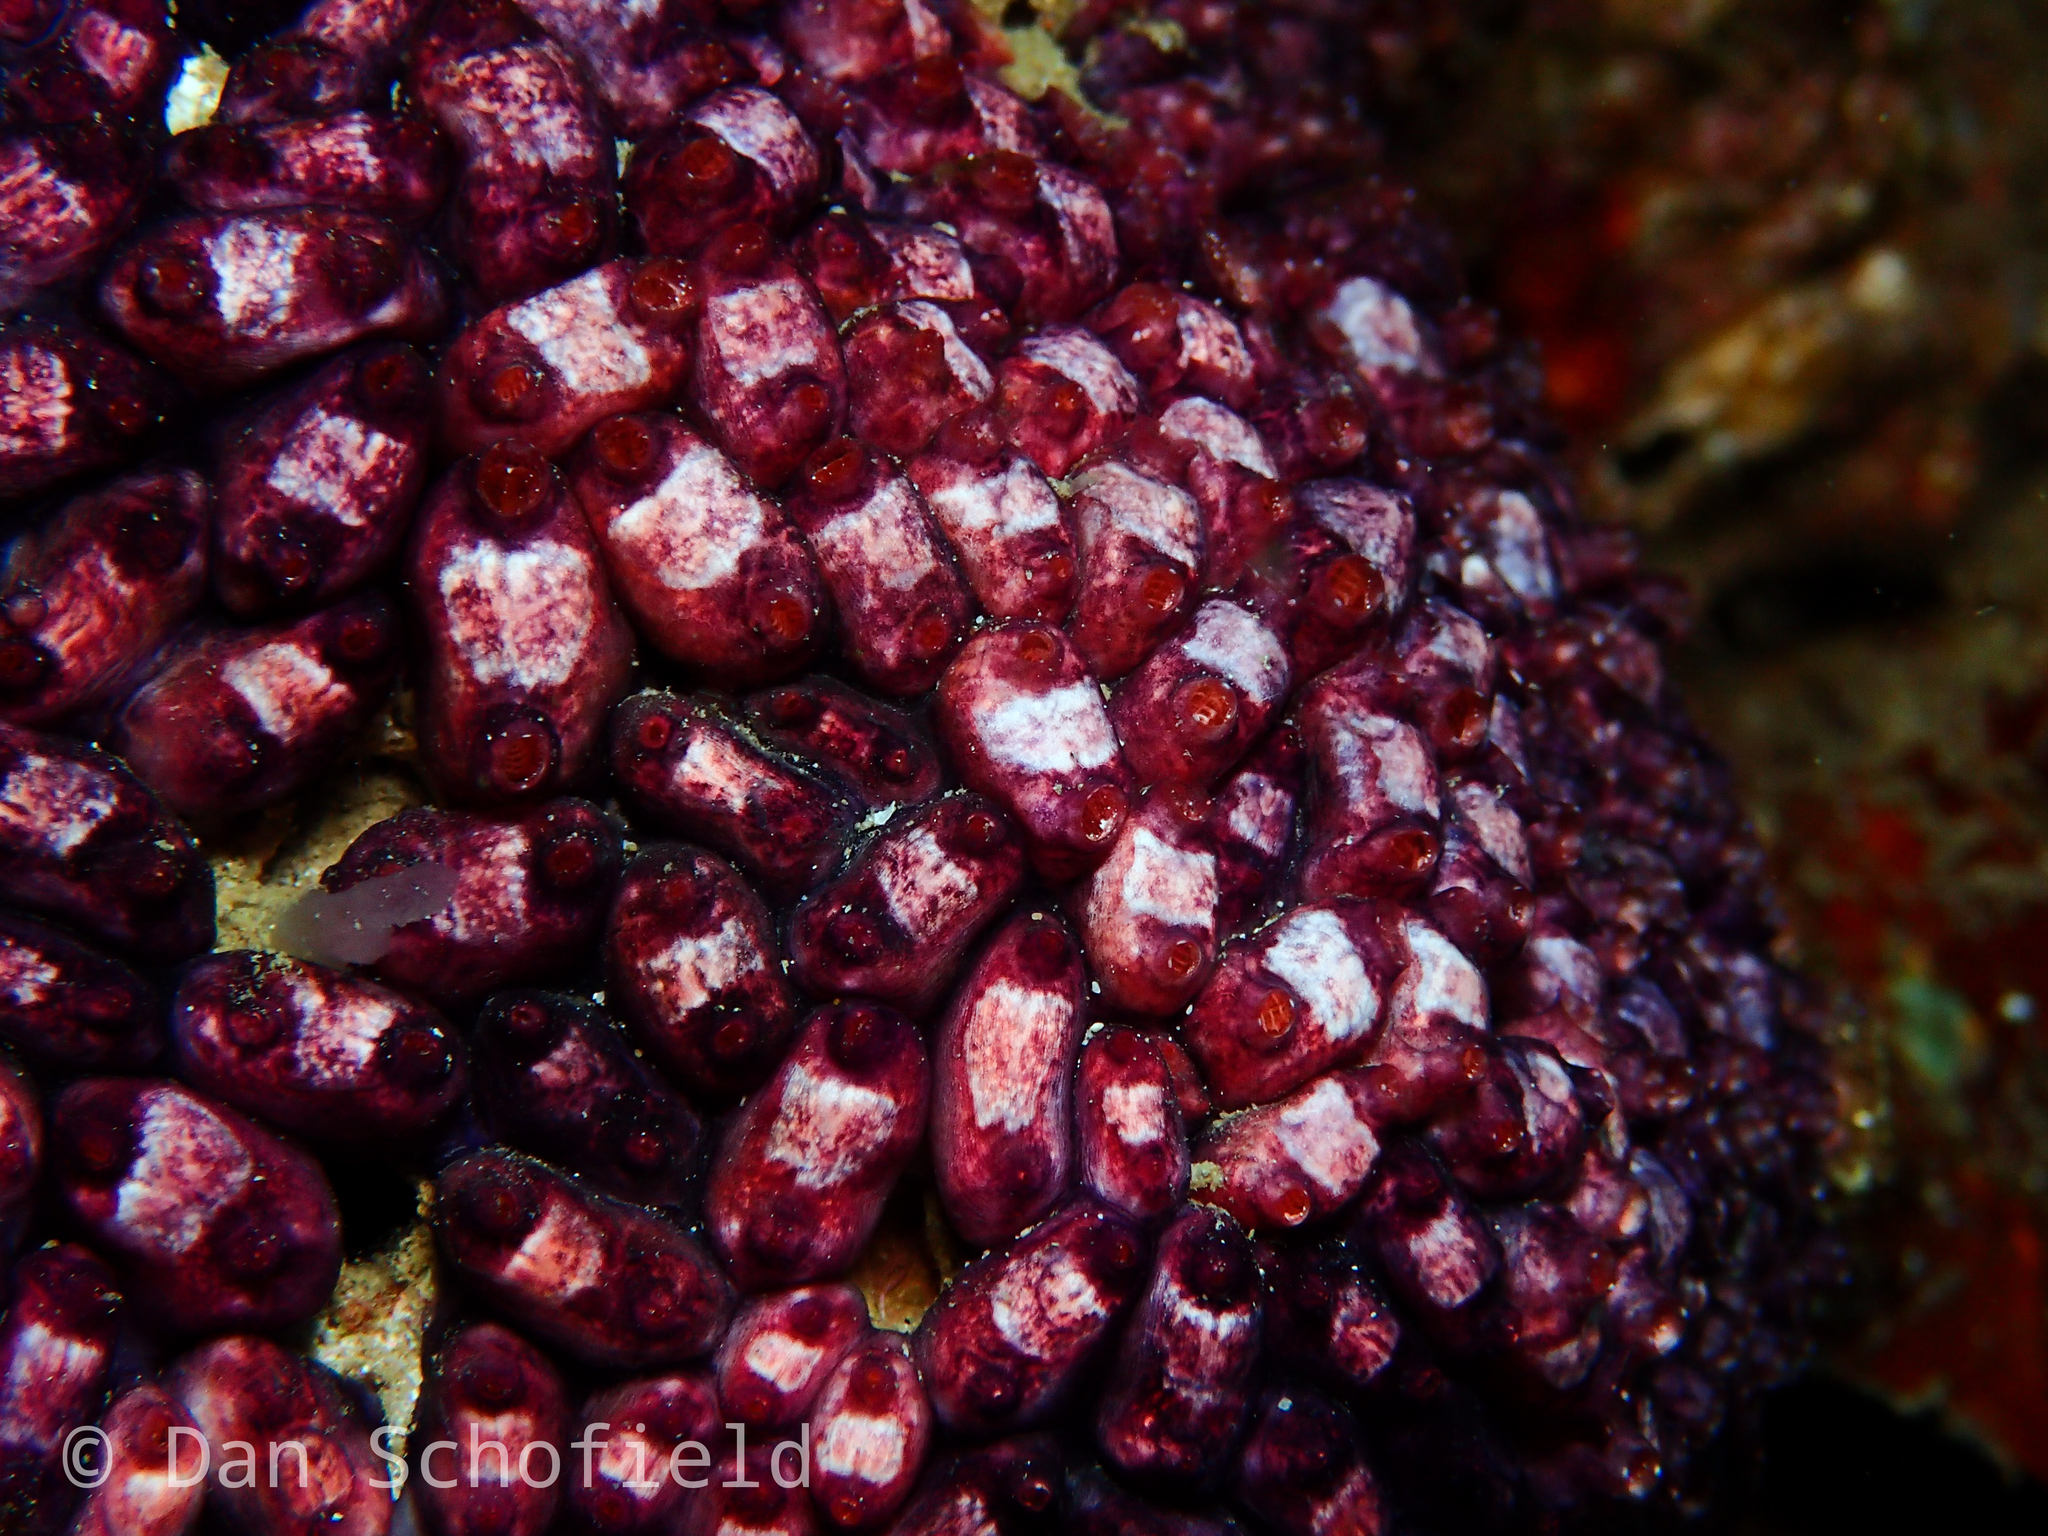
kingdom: Animalia
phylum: Chordata
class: Ascidiacea
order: Stolidobranchia
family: Styelidae
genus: Eusynstyela
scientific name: Eusynstyela latericius
